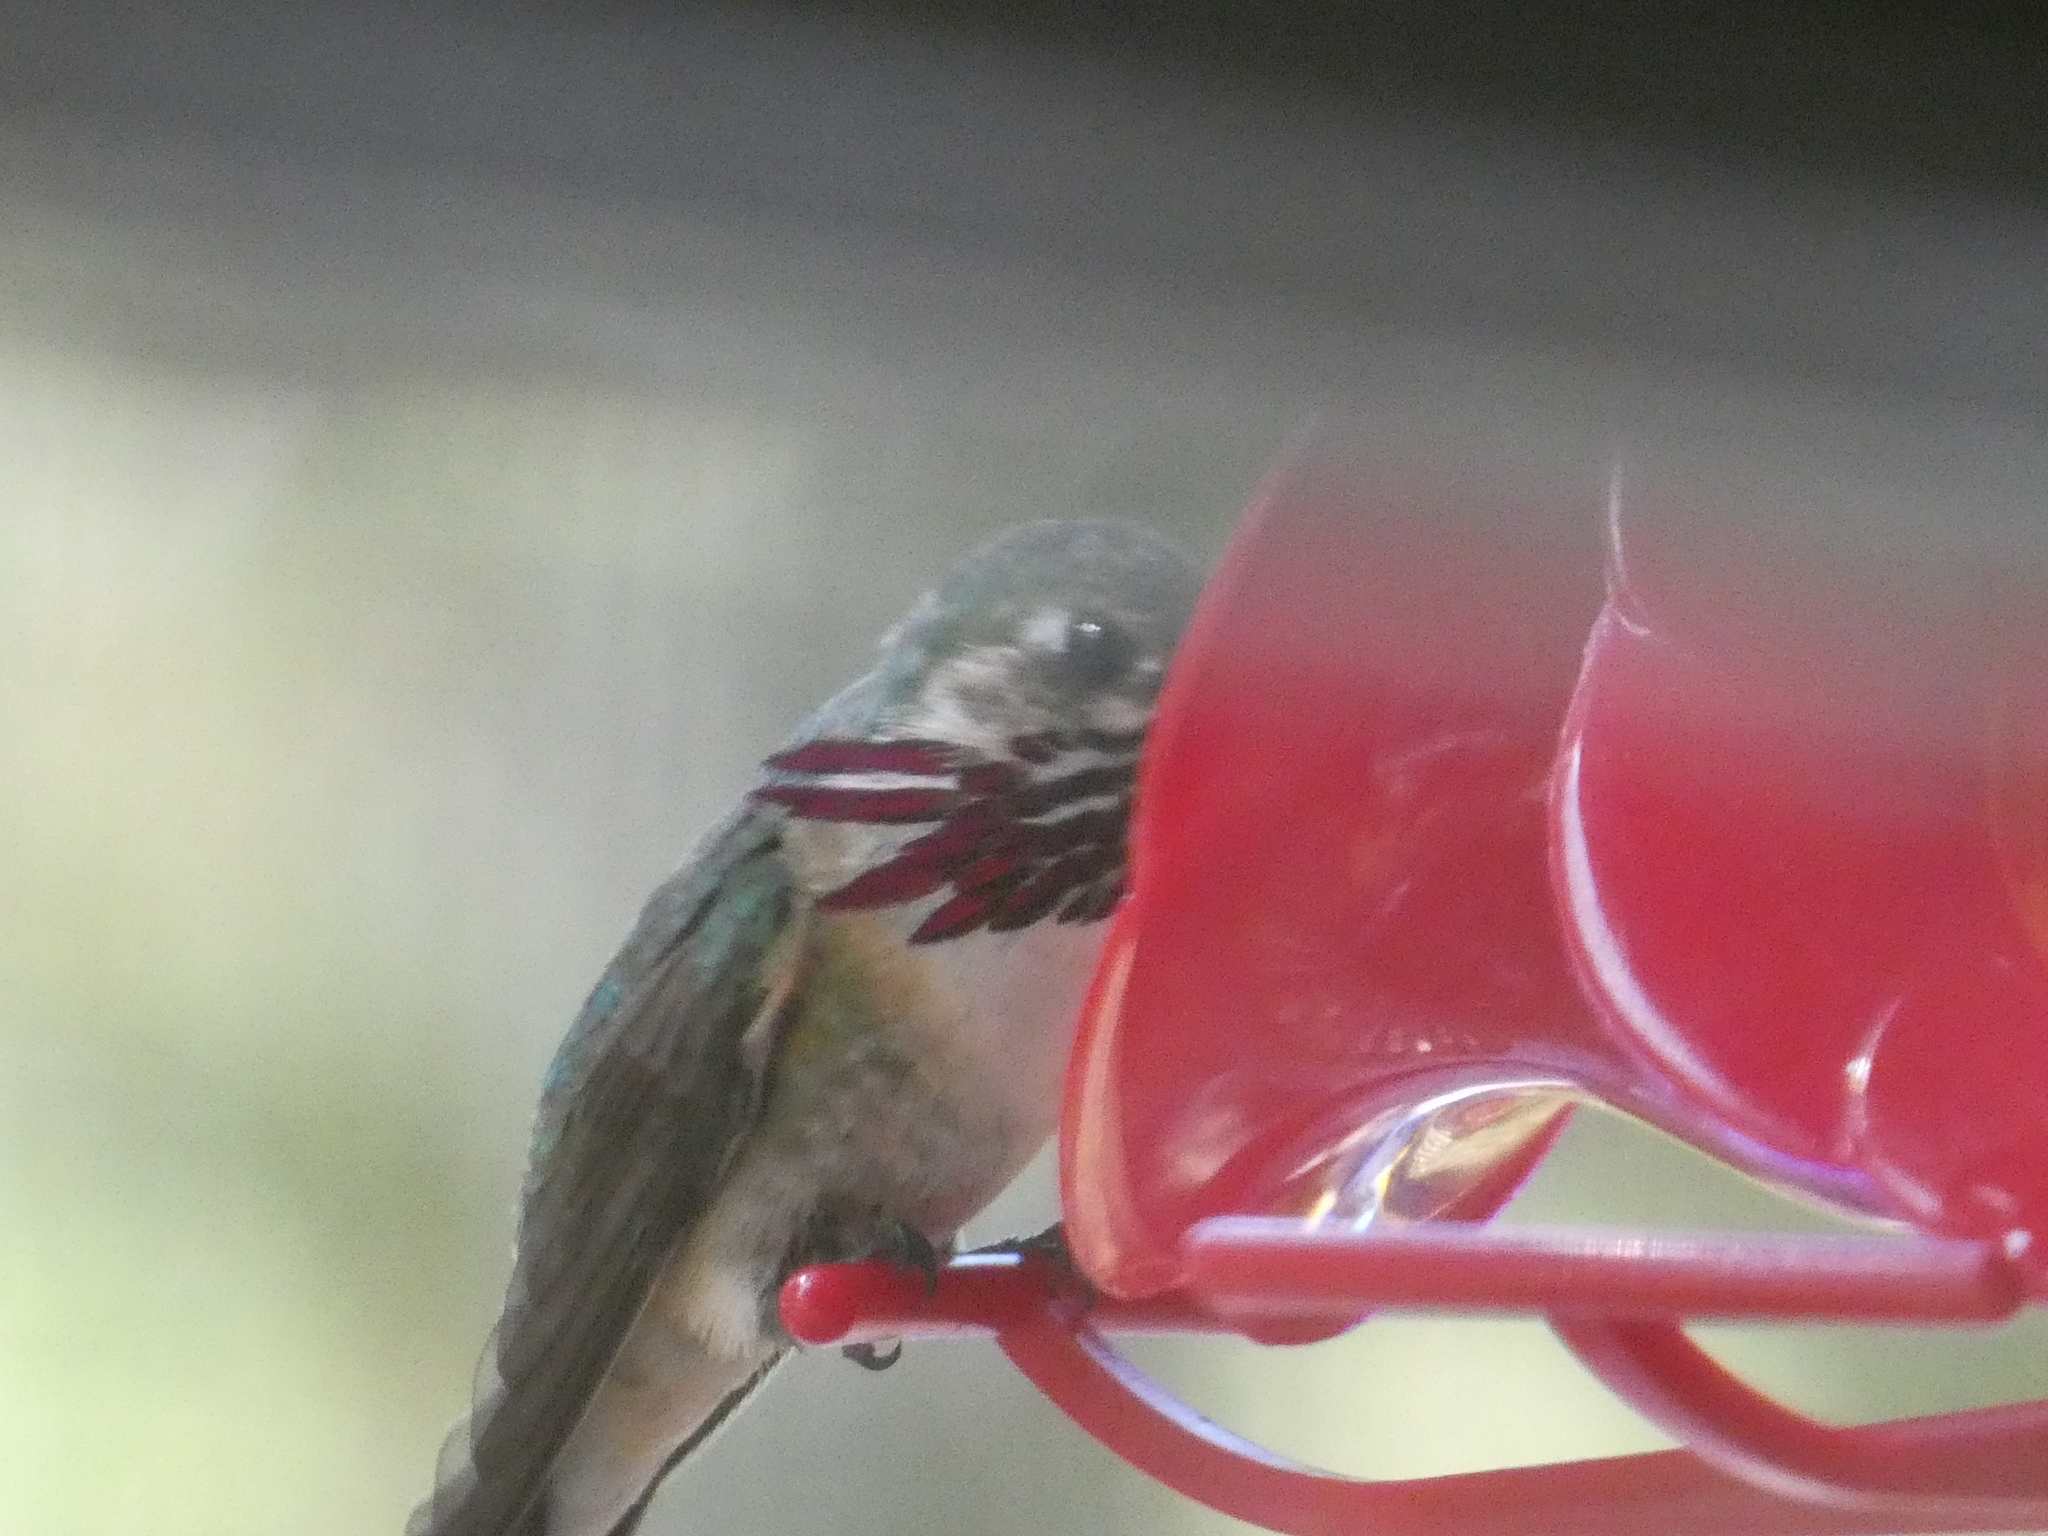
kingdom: Animalia
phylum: Chordata
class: Aves
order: Apodiformes
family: Trochilidae
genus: Selasphorus
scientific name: Selasphorus calliope
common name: Calliope hummingbird
